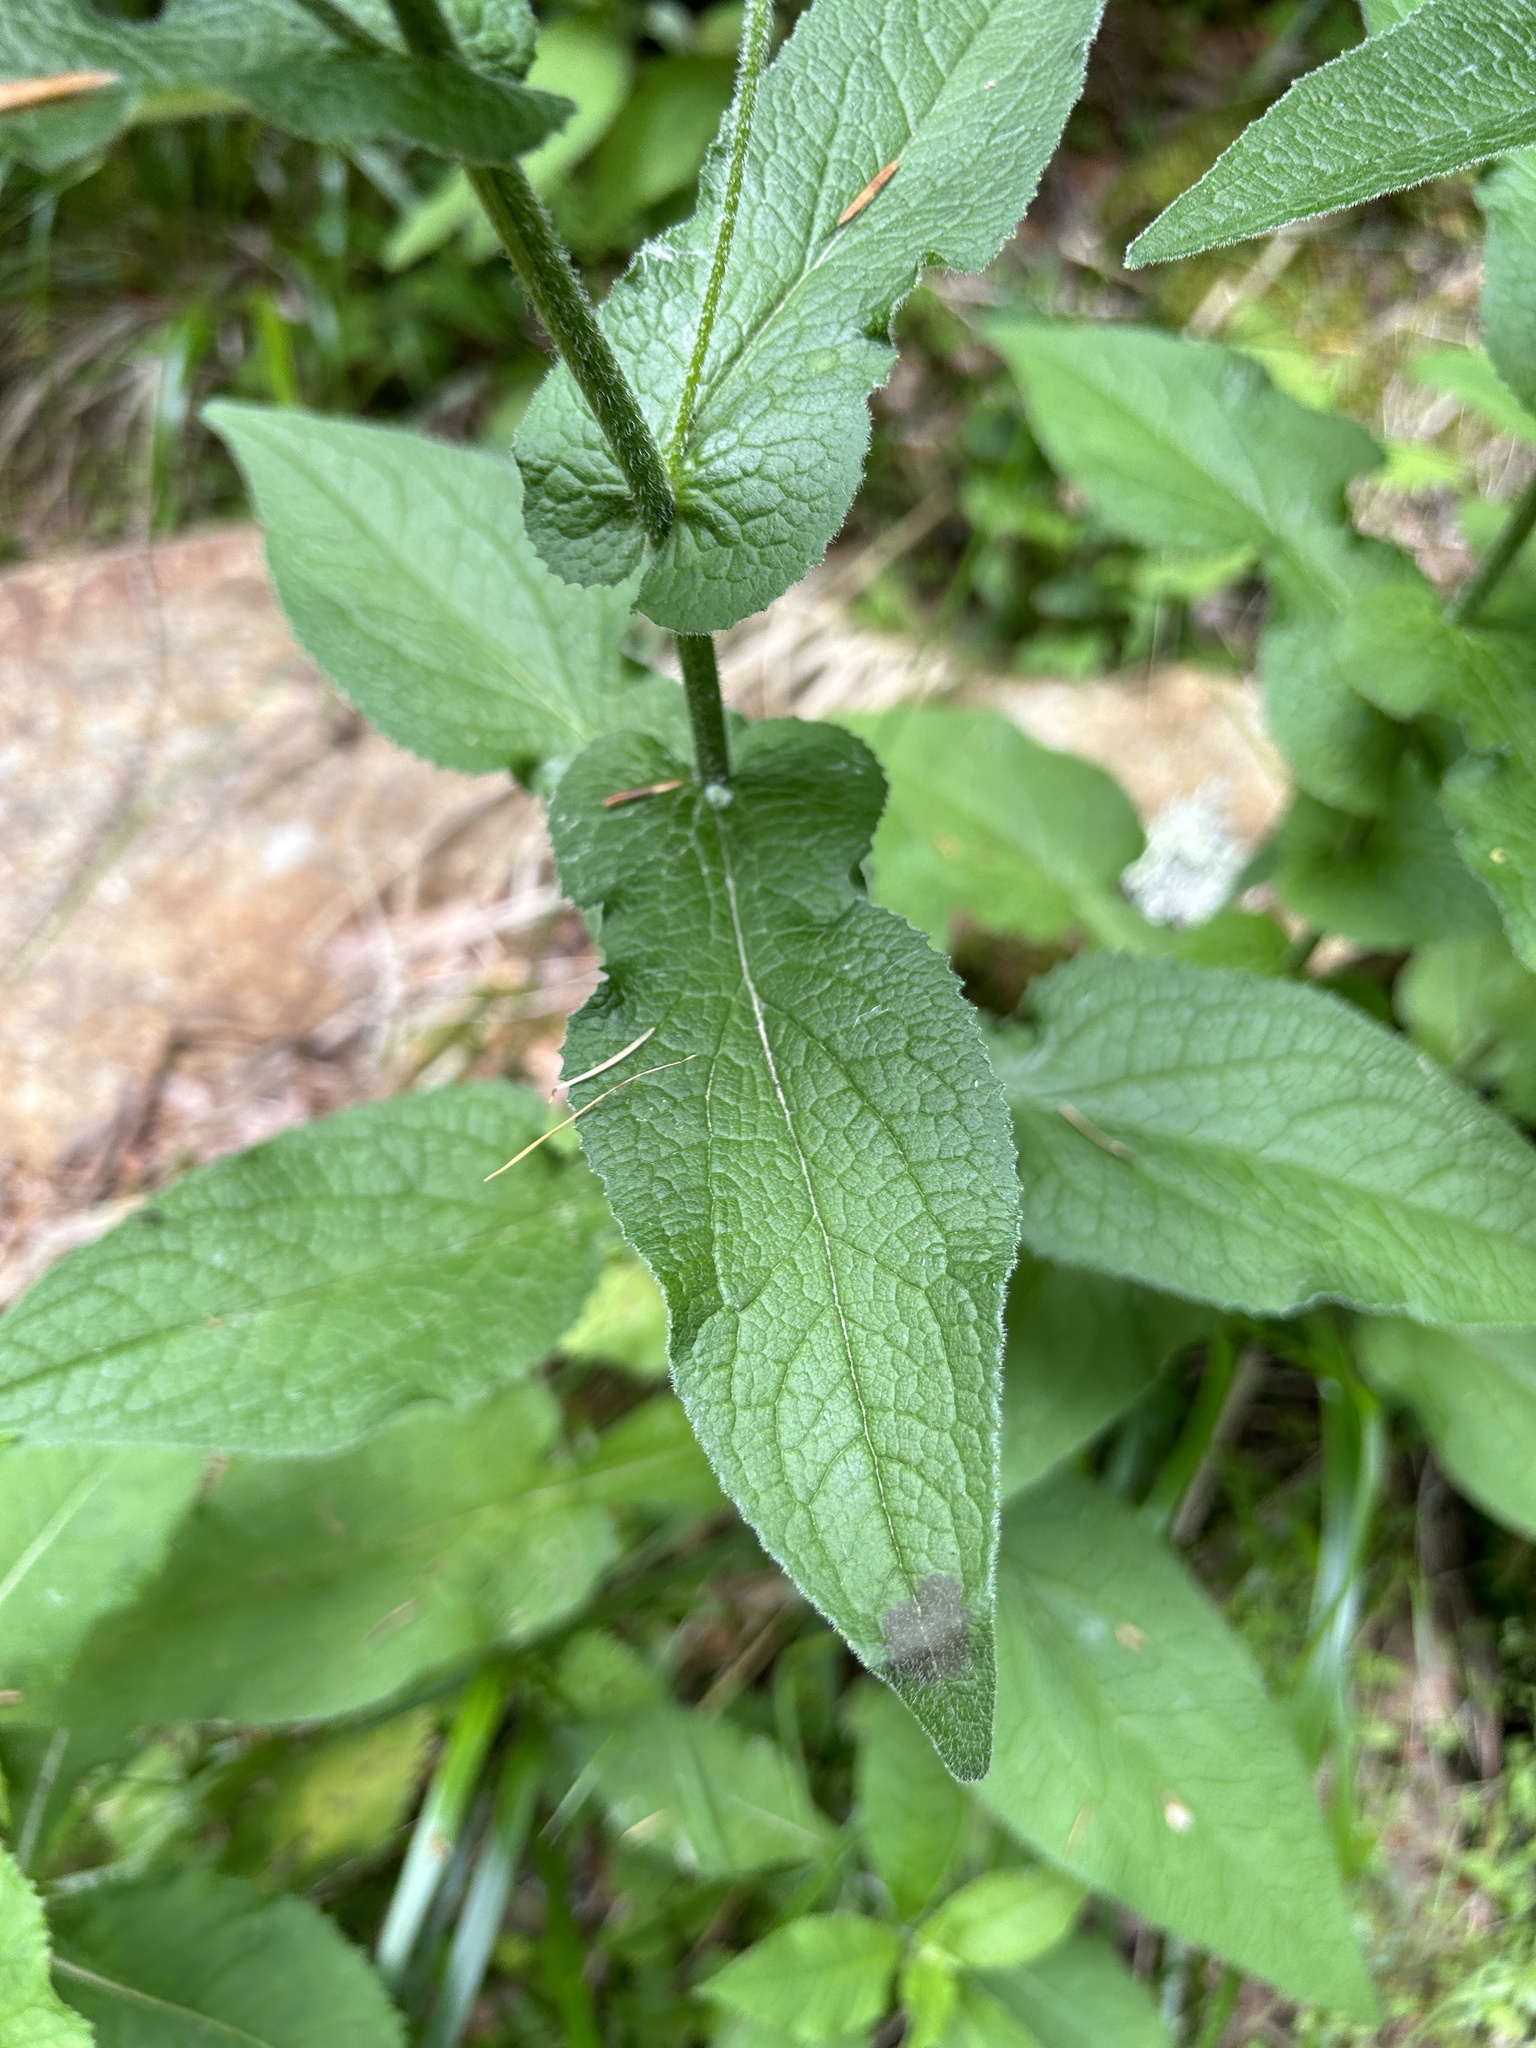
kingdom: Plantae
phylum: Tracheophyta
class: Magnoliopsida
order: Asterales
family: Asteraceae
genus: Doronicum
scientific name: Doronicum austriacum
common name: Austrian leopard's-bane
